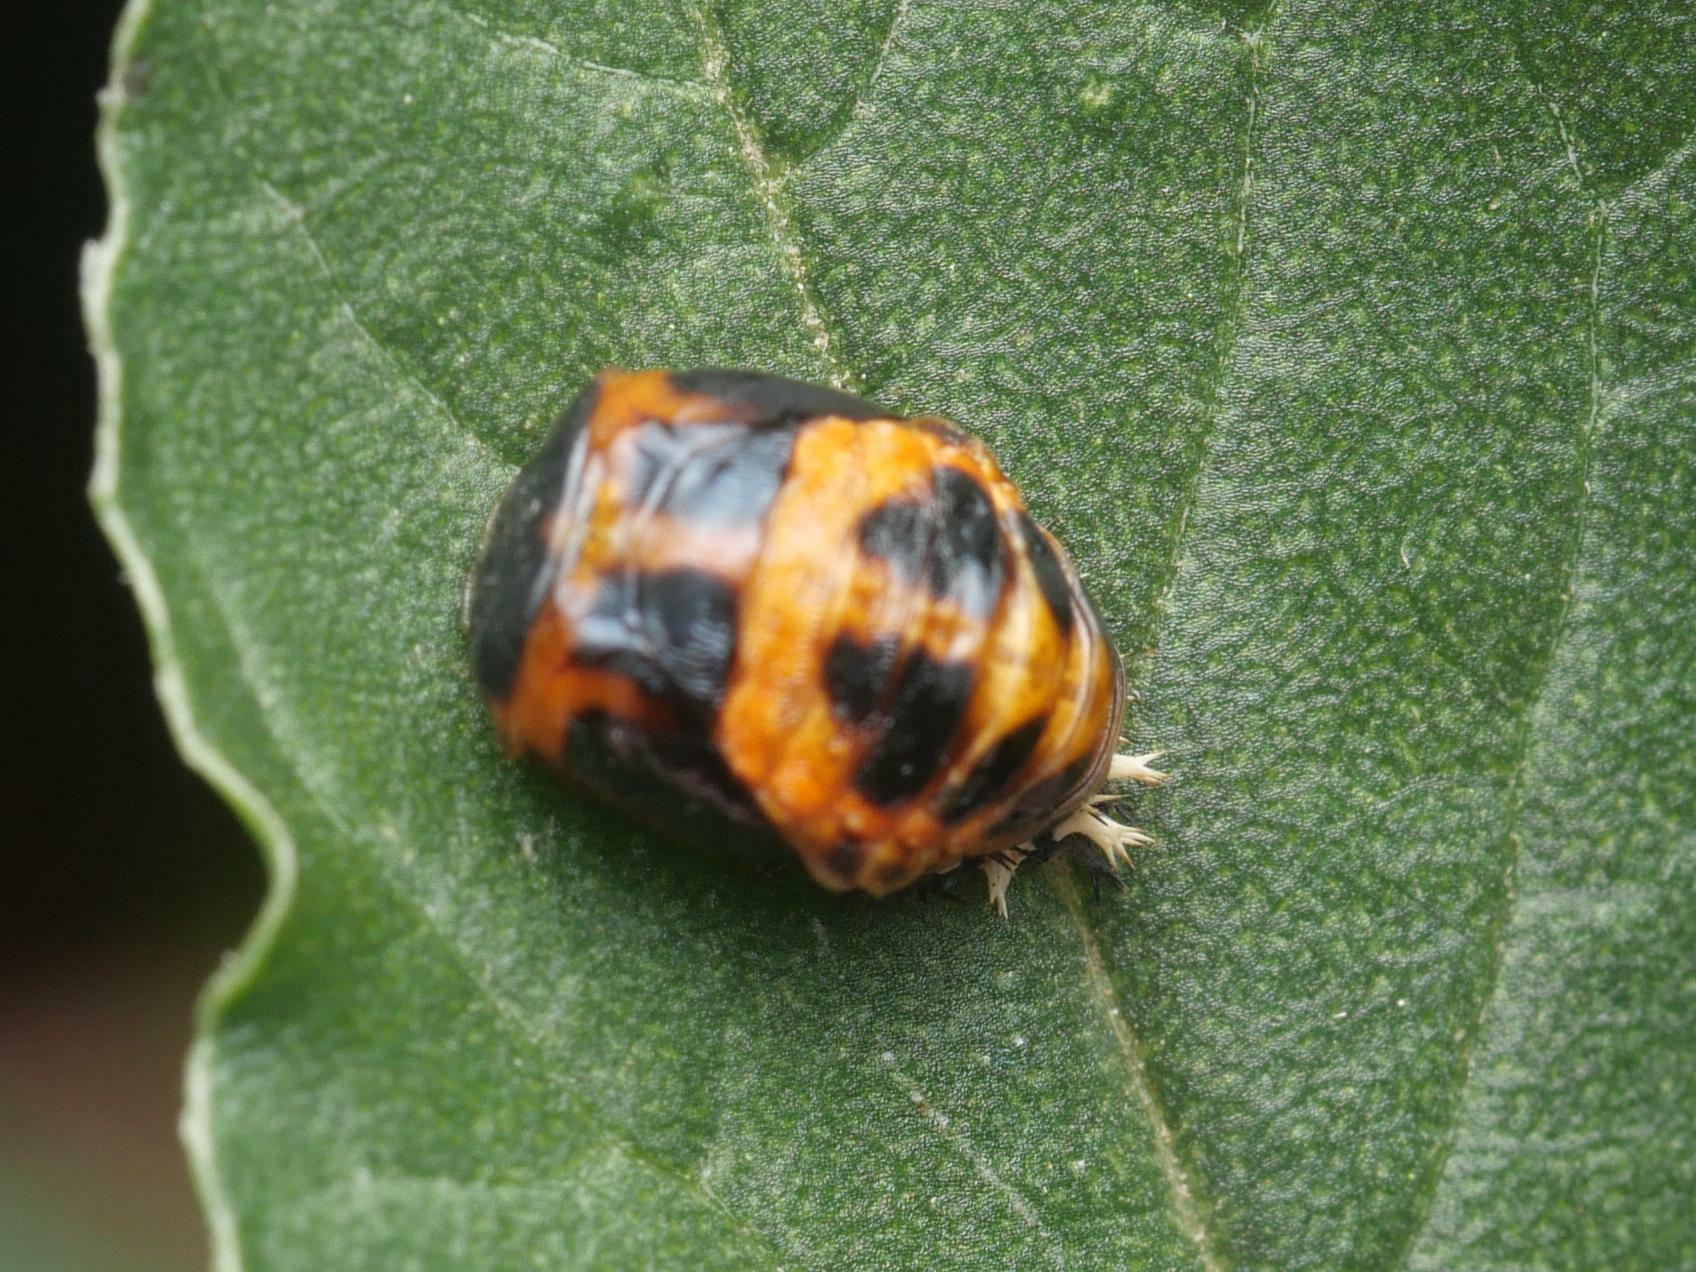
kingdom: Animalia
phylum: Arthropoda
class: Insecta
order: Coleoptera
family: Coccinellidae
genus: Harmonia
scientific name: Harmonia axyridis
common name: Harlequin ladybird
